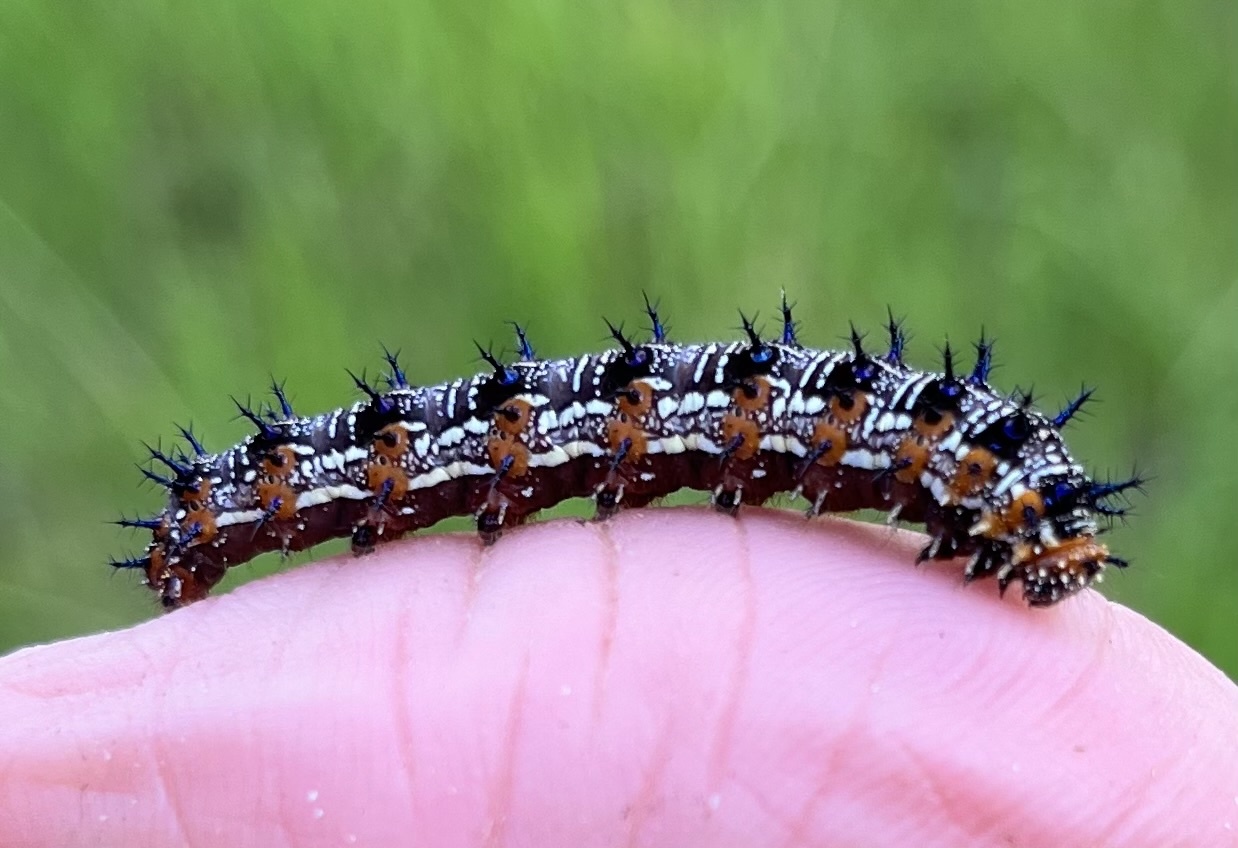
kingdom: Animalia
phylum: Arthropoda
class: Insecta
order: Lepidoptera
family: Nymphalidae
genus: Junonia
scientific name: Junonia coenia
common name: Common buckeye
